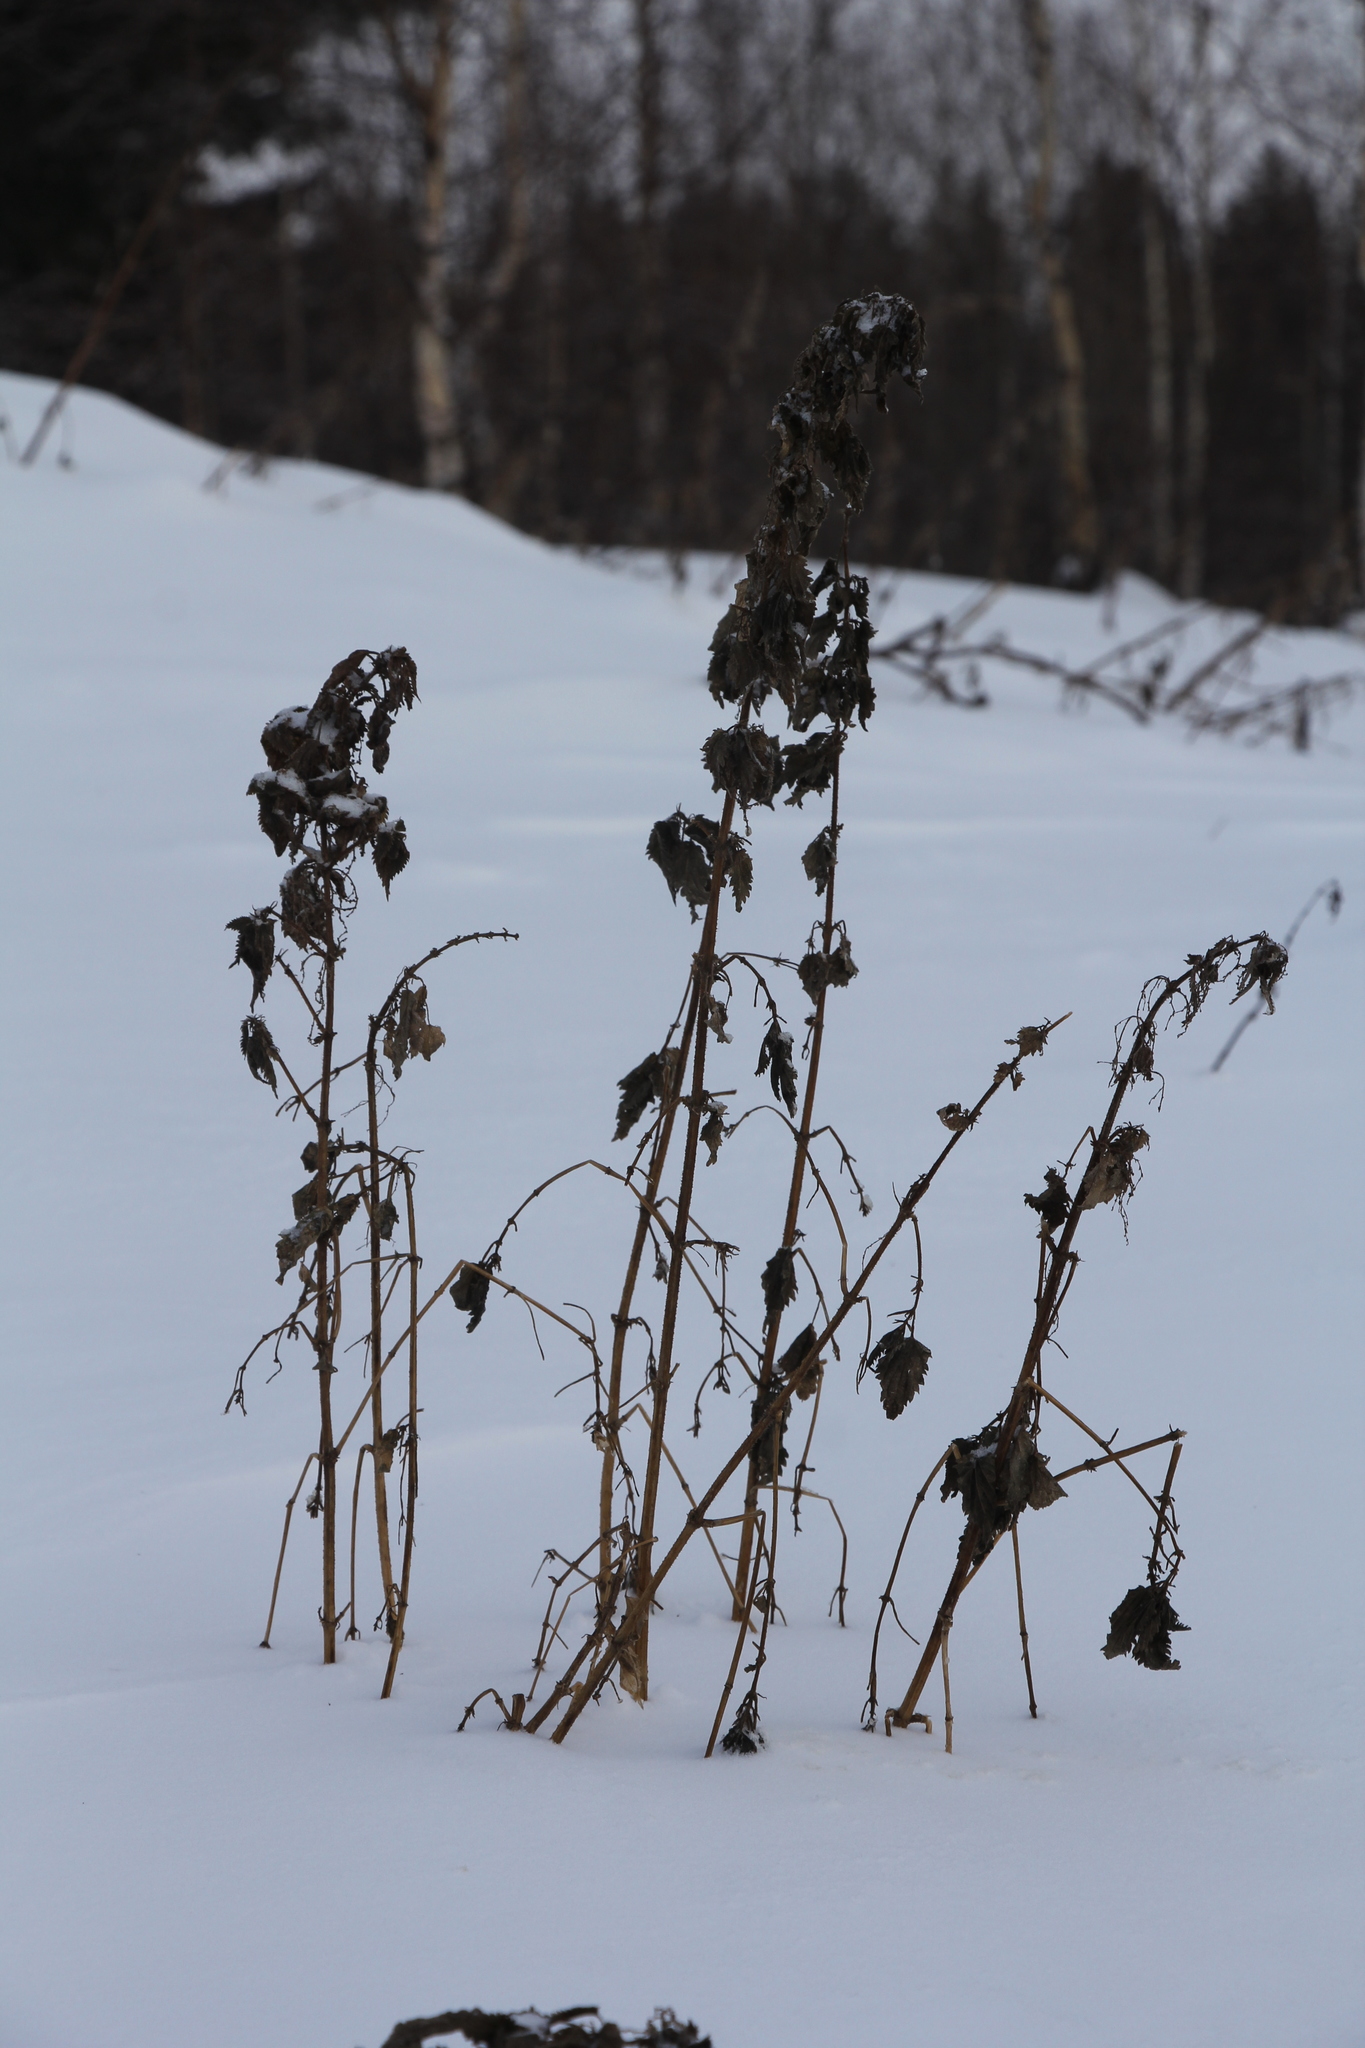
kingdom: Plantae
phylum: Tracheophyta
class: Magnoliopsida
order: Rosales
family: Urticaceae
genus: Urtica
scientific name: Urtica dioica
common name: Common nettle
